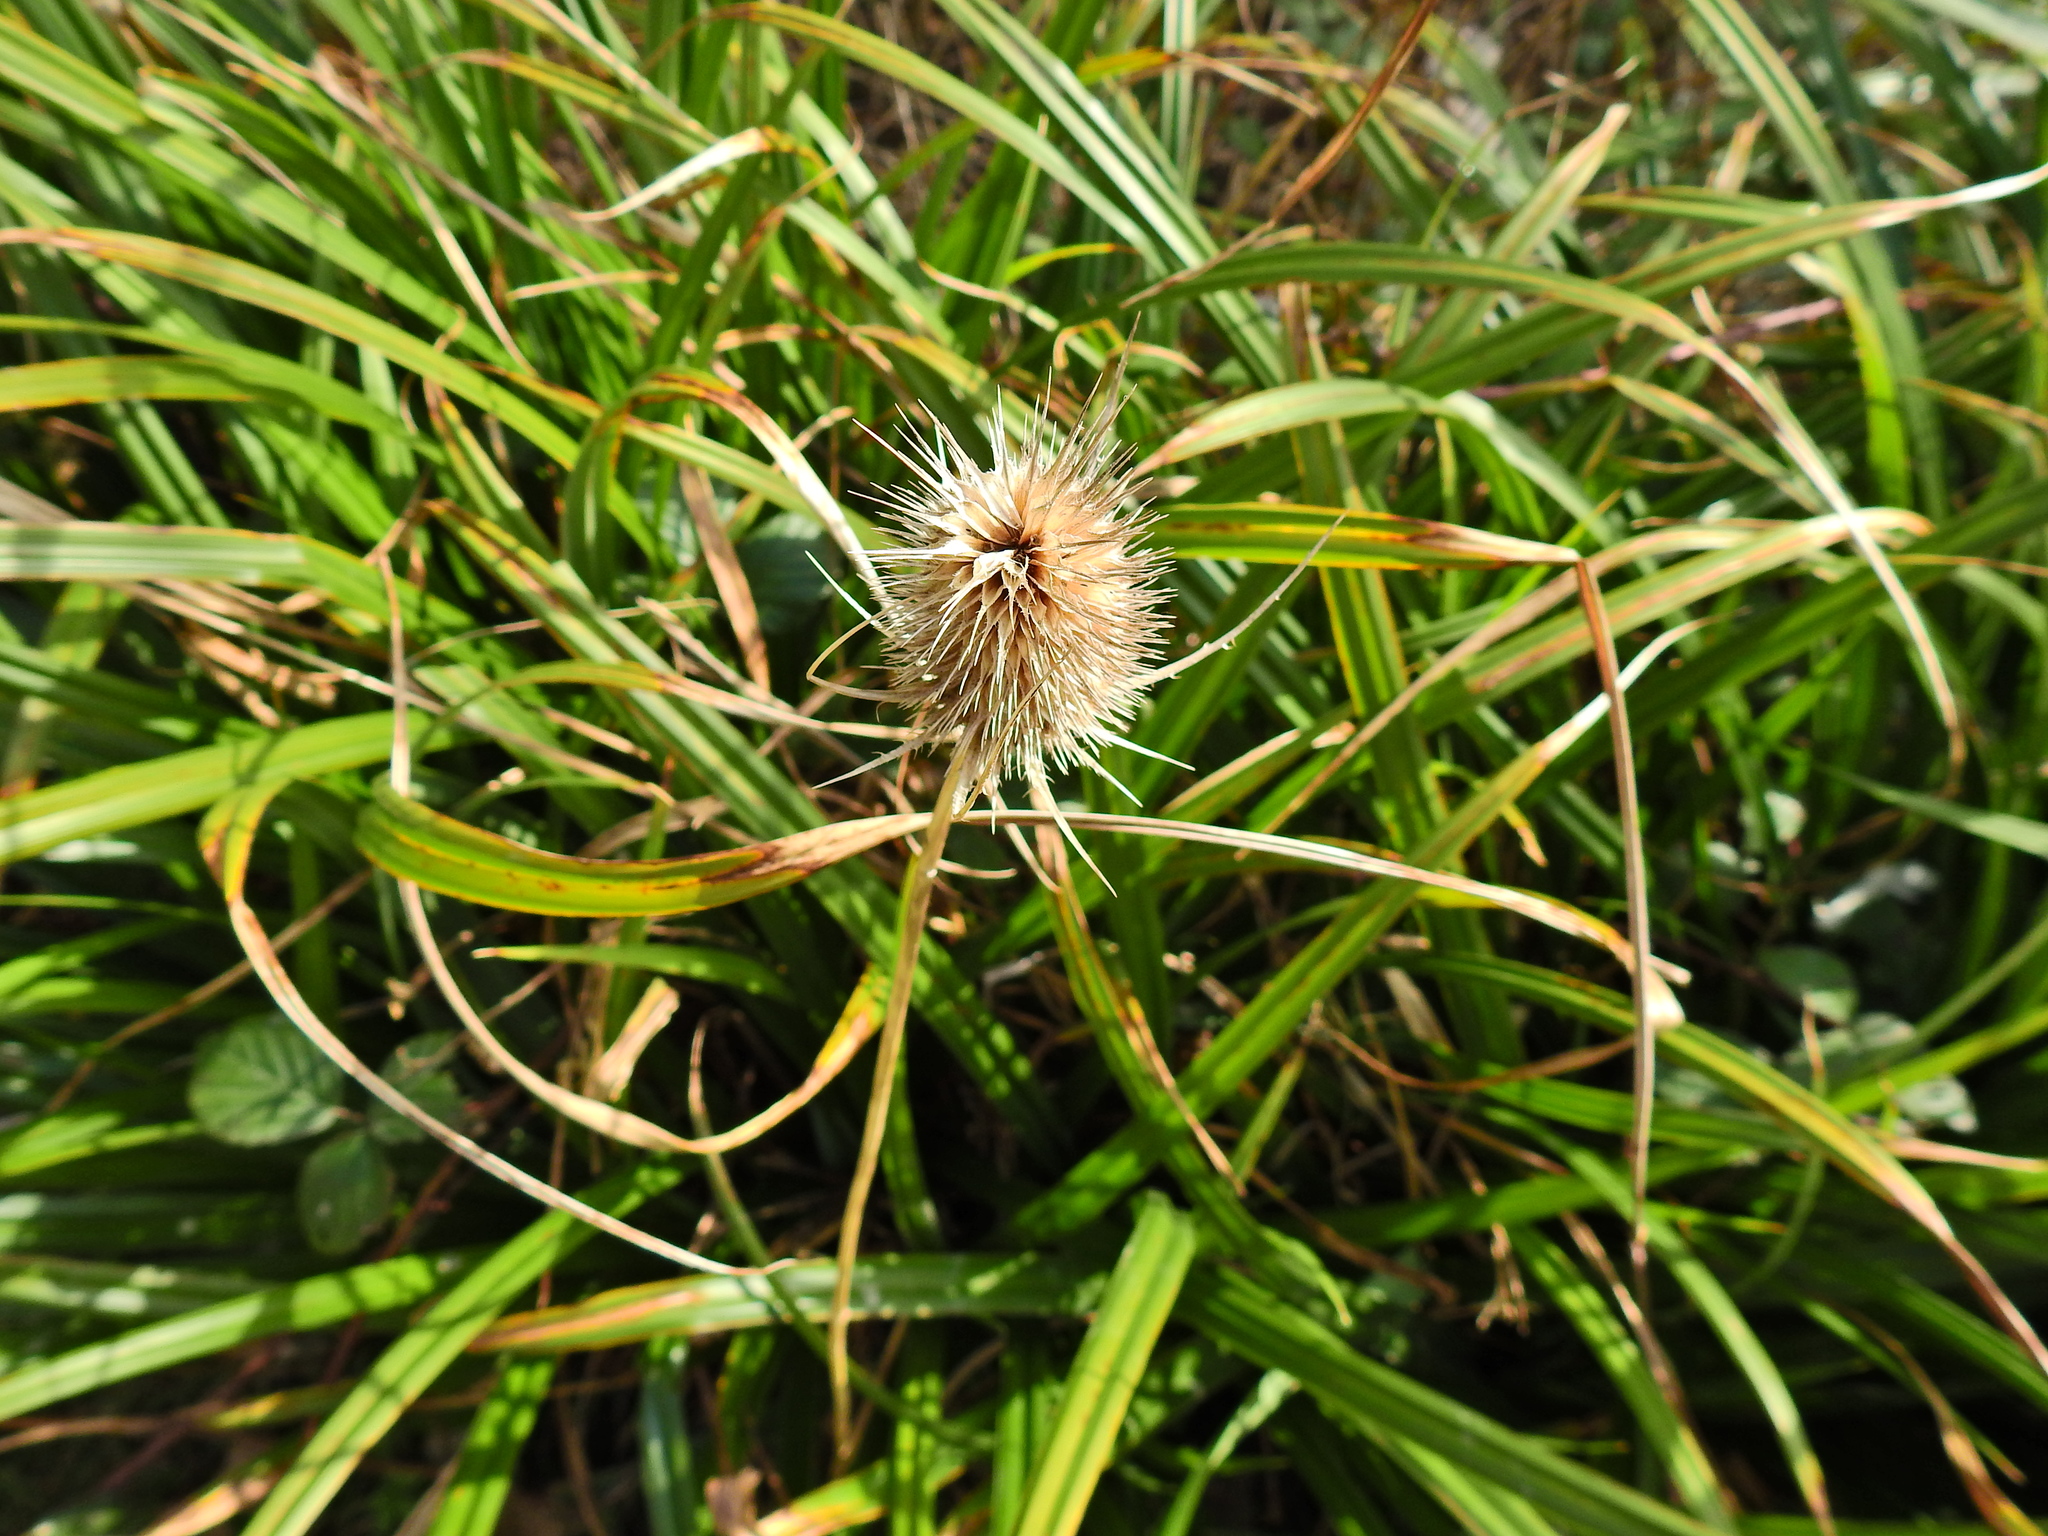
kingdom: Plantae
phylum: Tracheophyta
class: Magnoliopsida
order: Dipsacales
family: Caprifoliaceae
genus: Dipsacus
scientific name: Dipsacus fullonum
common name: Teasel
